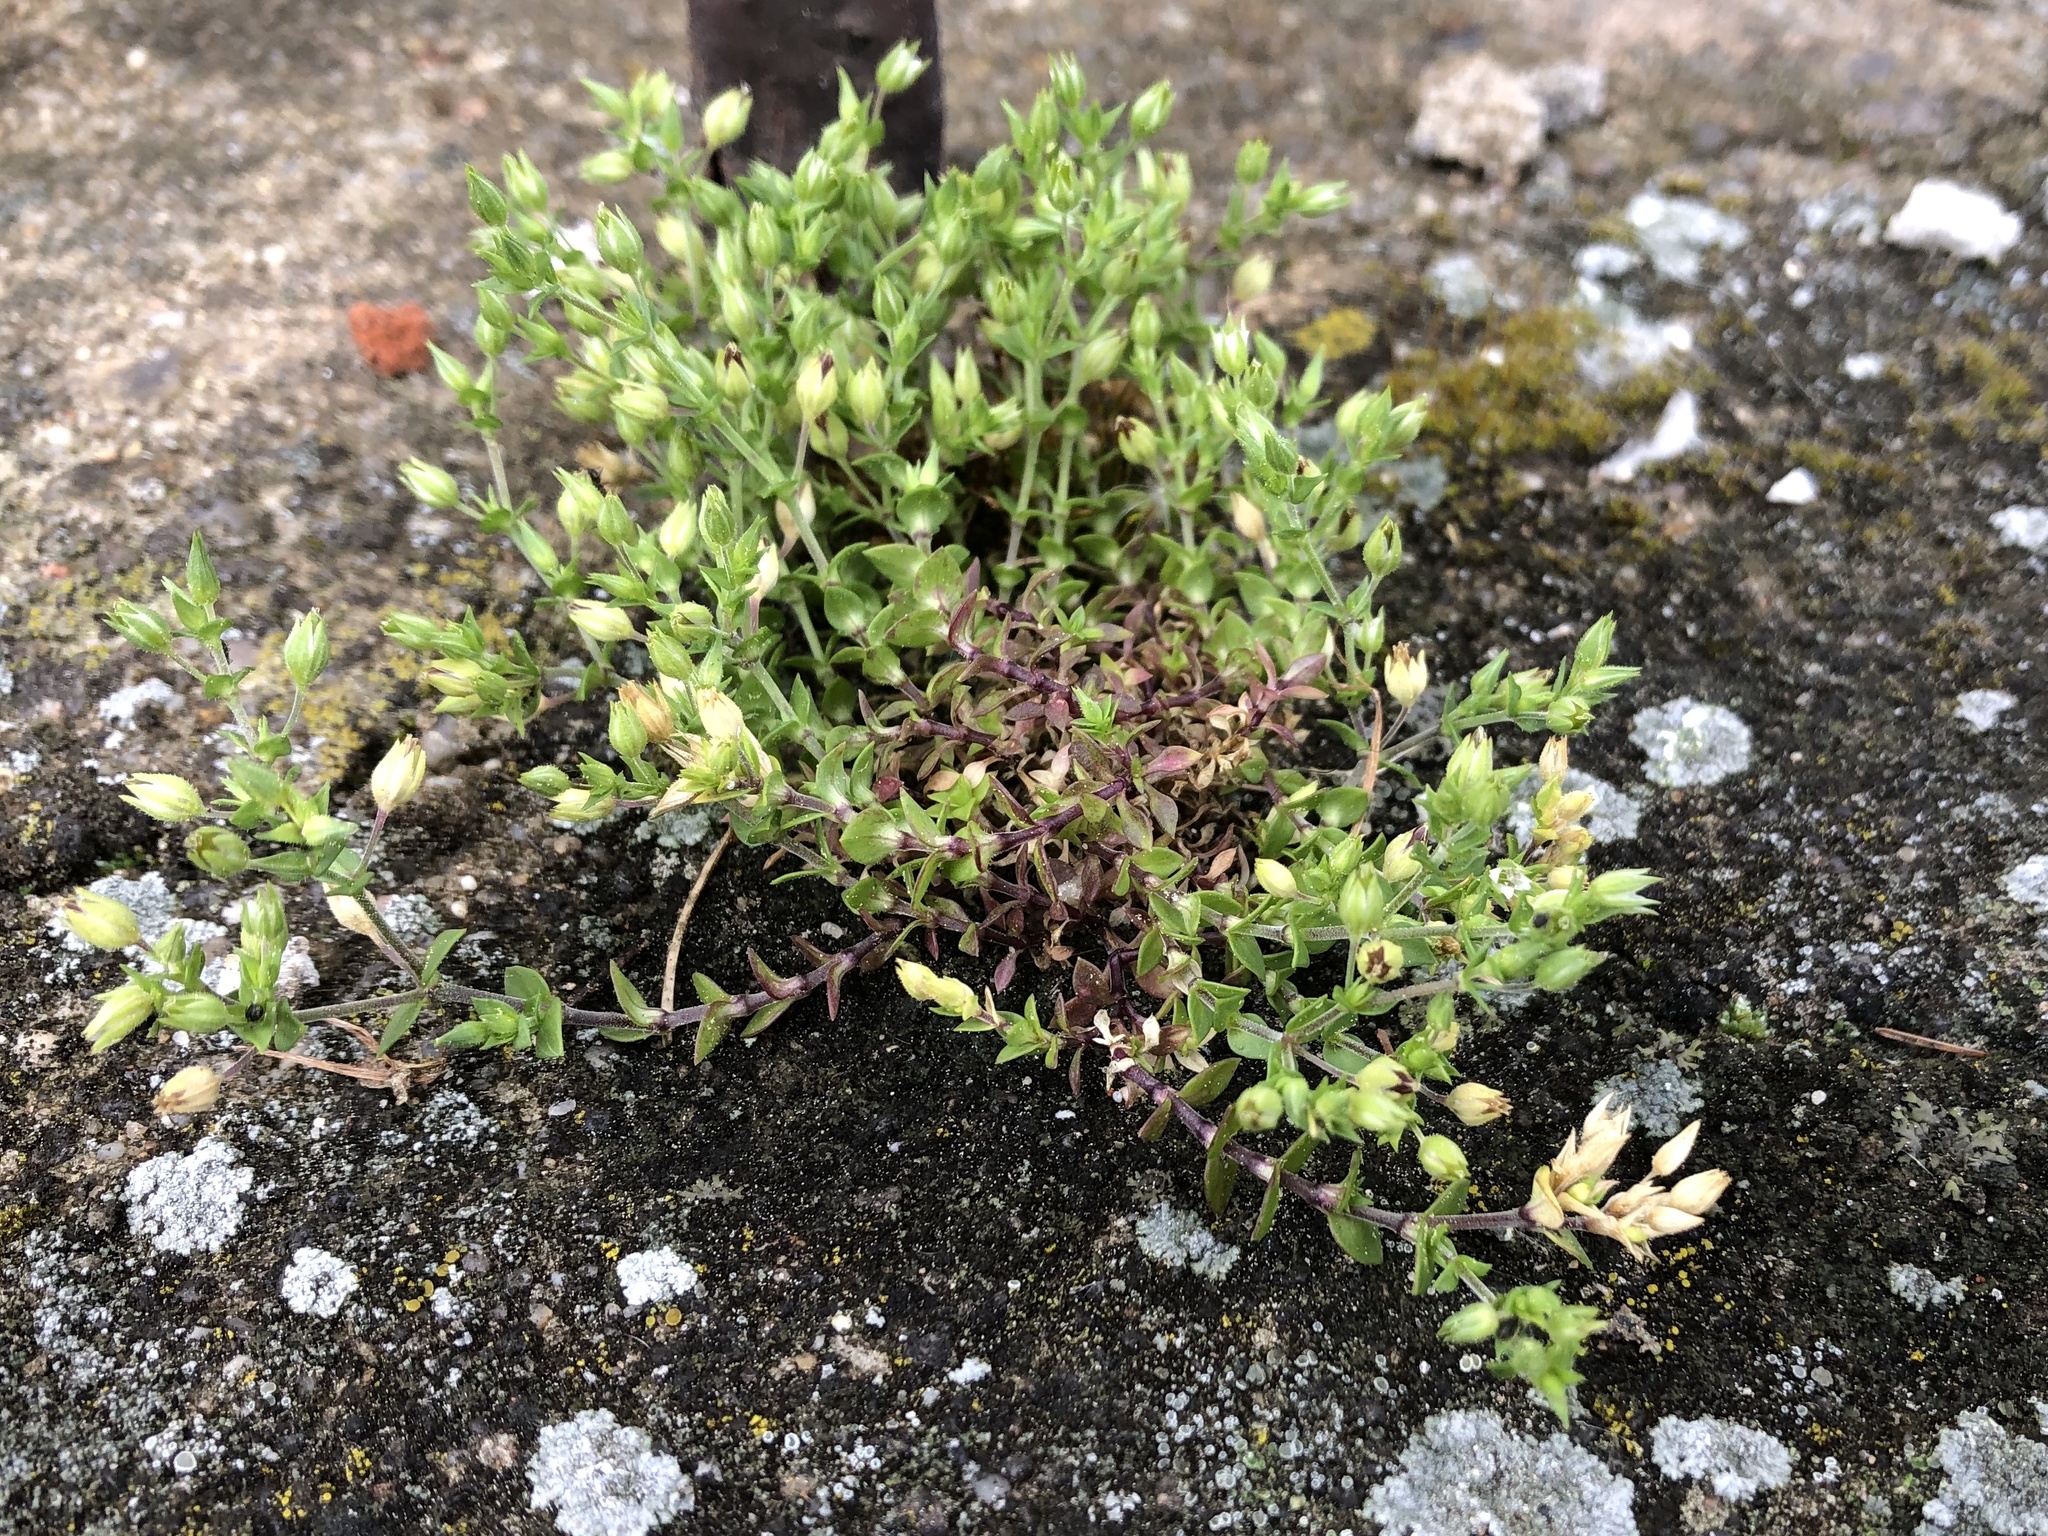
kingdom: Plantae
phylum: Tracheophyta
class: Magnoliopsida
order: Caryophyllales
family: Caryophyllaceae
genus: Arenaria
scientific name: Arenaria serpyllifolia
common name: Thyme-leaved sandwort
